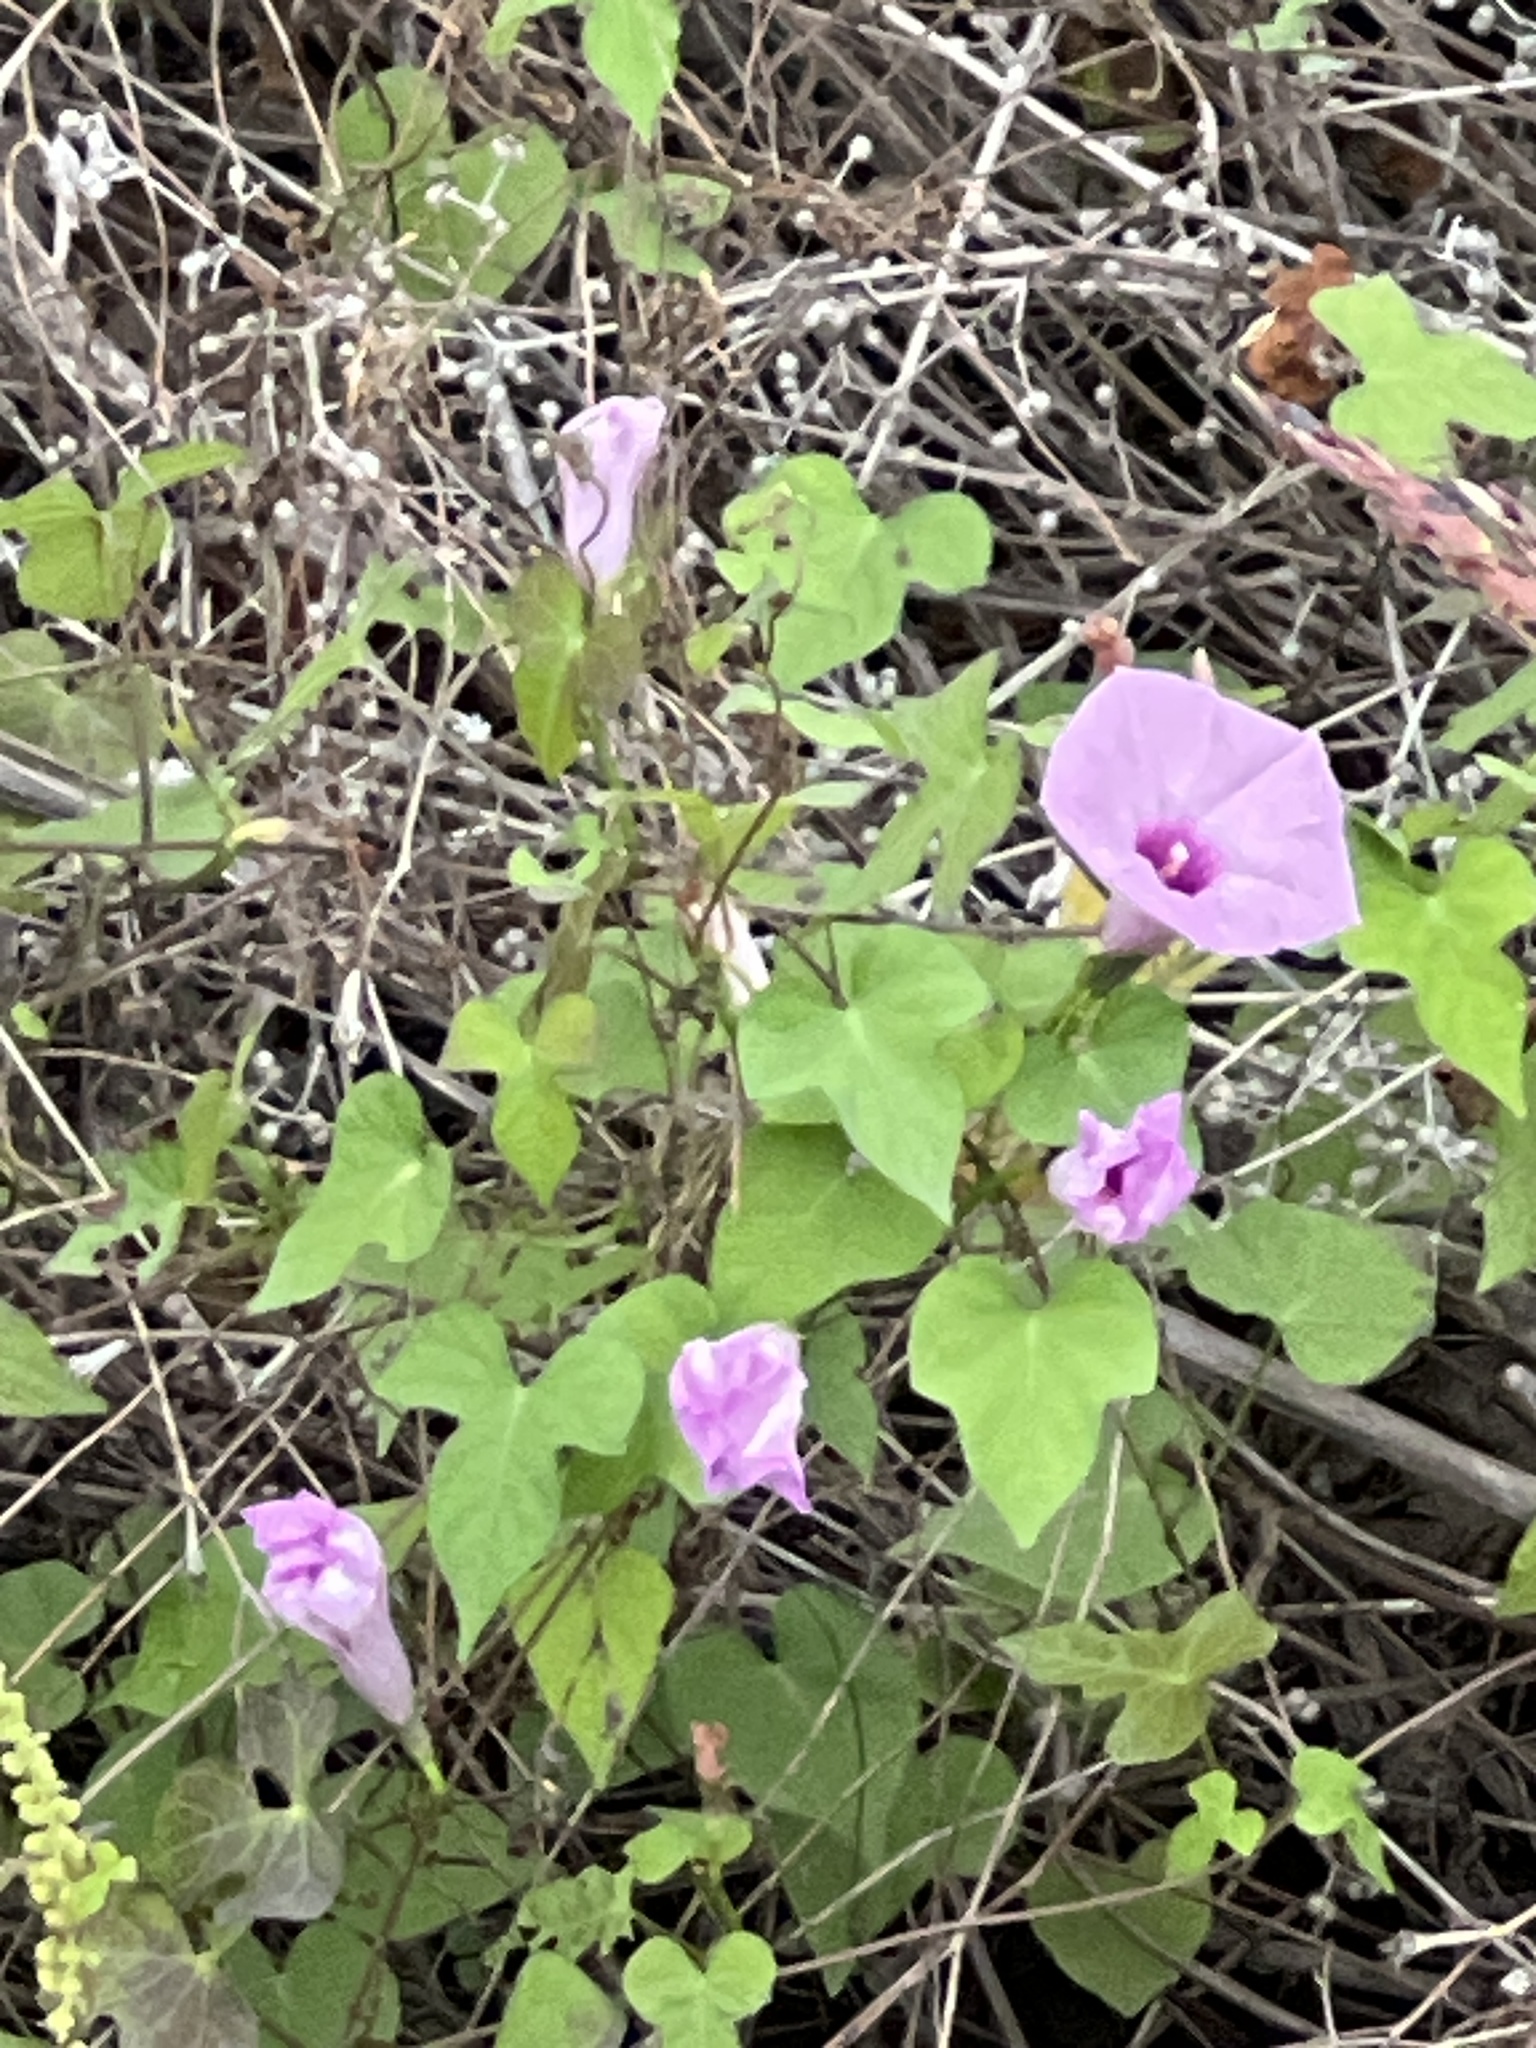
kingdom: Plantae
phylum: Tracheophyta
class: Magnoliopsida
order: Solanales
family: Convolvulaceae
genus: Ipomoea
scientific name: Ipomoea cordatotriloba
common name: Cotton morning glory
